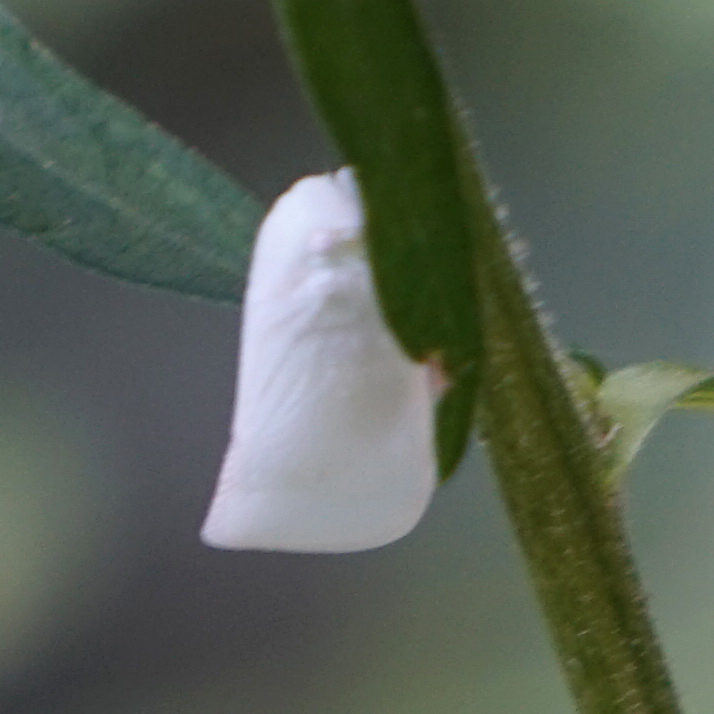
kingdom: Animalia
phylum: Arthropoda
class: Insecta
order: Hemiptera
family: Flatidae
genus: Flatormenis
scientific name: Flatormenis proxima
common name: Northern flatid planthopper
